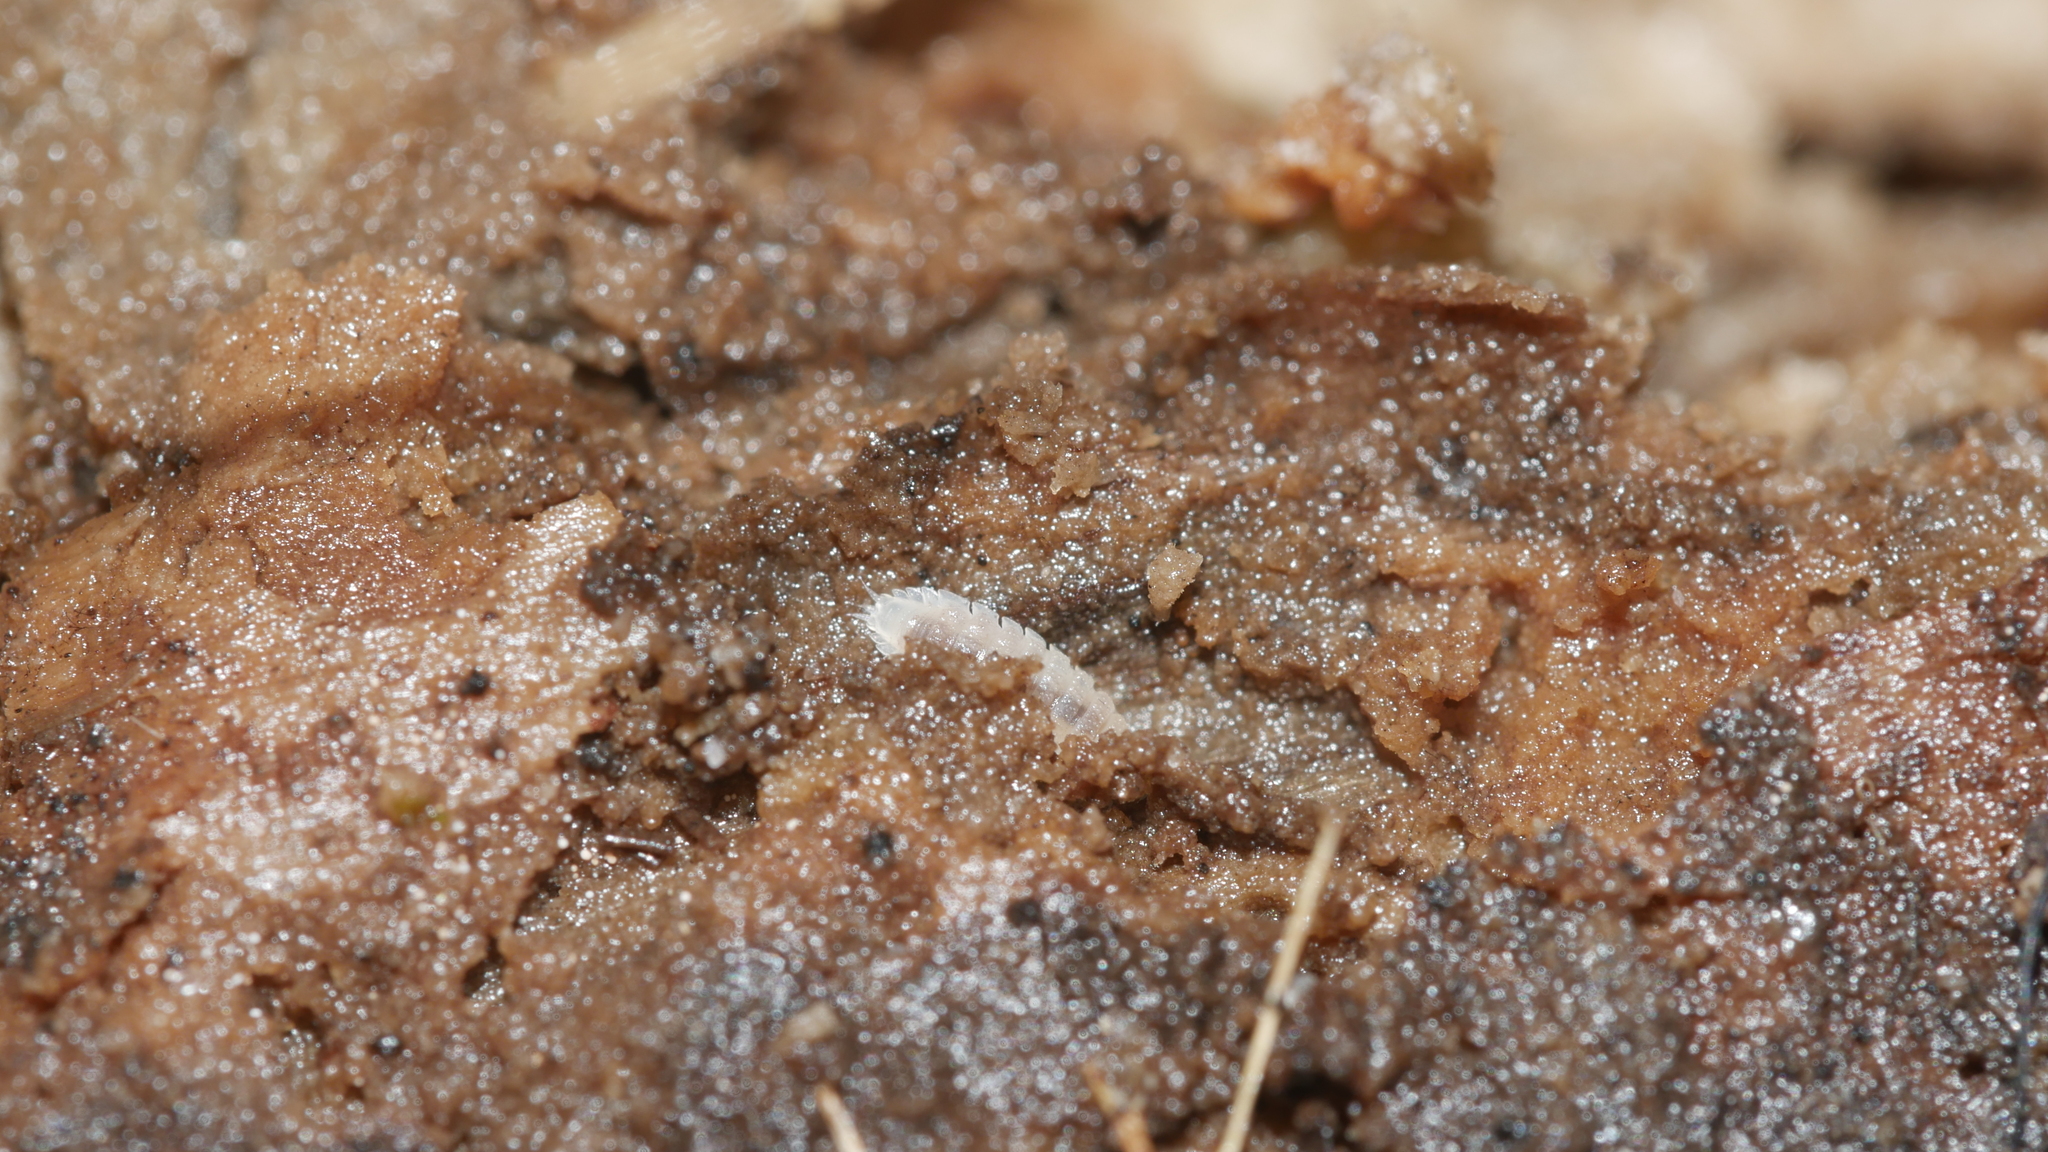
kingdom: Animalia
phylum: Arthropoda
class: Malacostraca
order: Isopoda
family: Trichoniscidae
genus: Haplophthalmus
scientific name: Haplophthalmus danicus
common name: Pillbug
